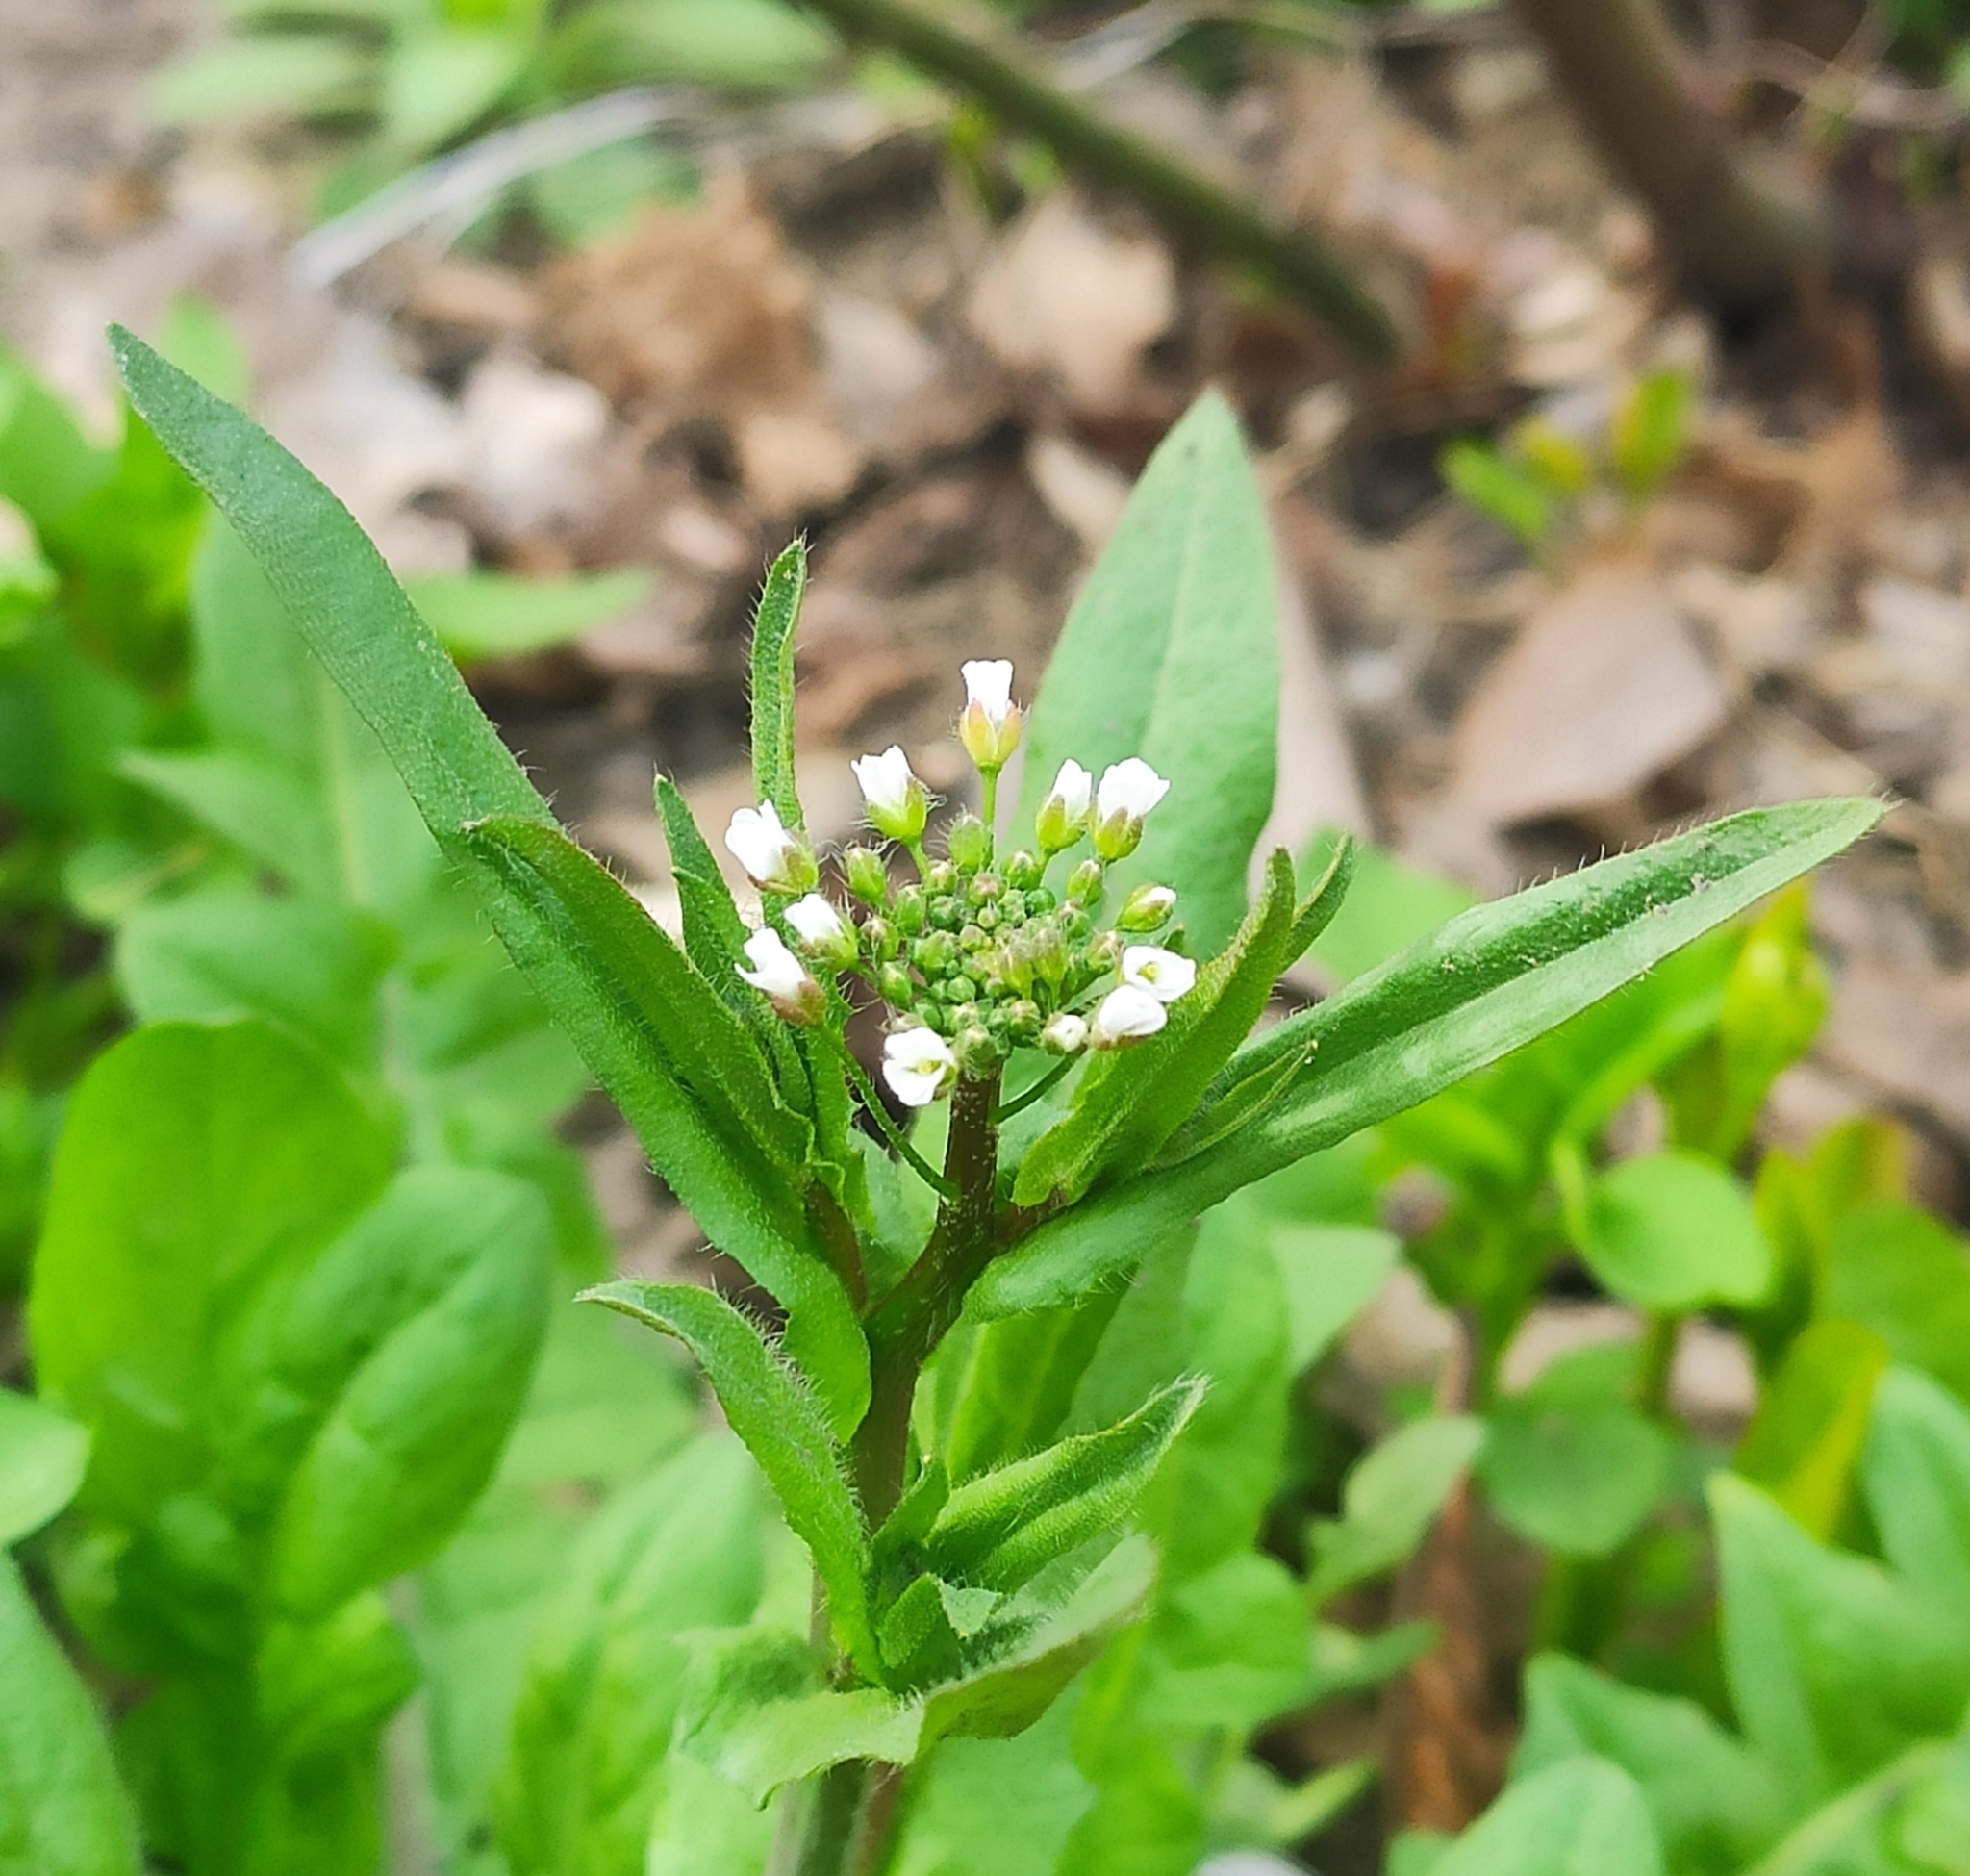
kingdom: Plantae
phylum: Tracheophyta
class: Magnoliopsida
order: Brassicales
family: Brassicaceae
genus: Capsella
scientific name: Capsella bursa-pastoris
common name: Shepherd's purse
